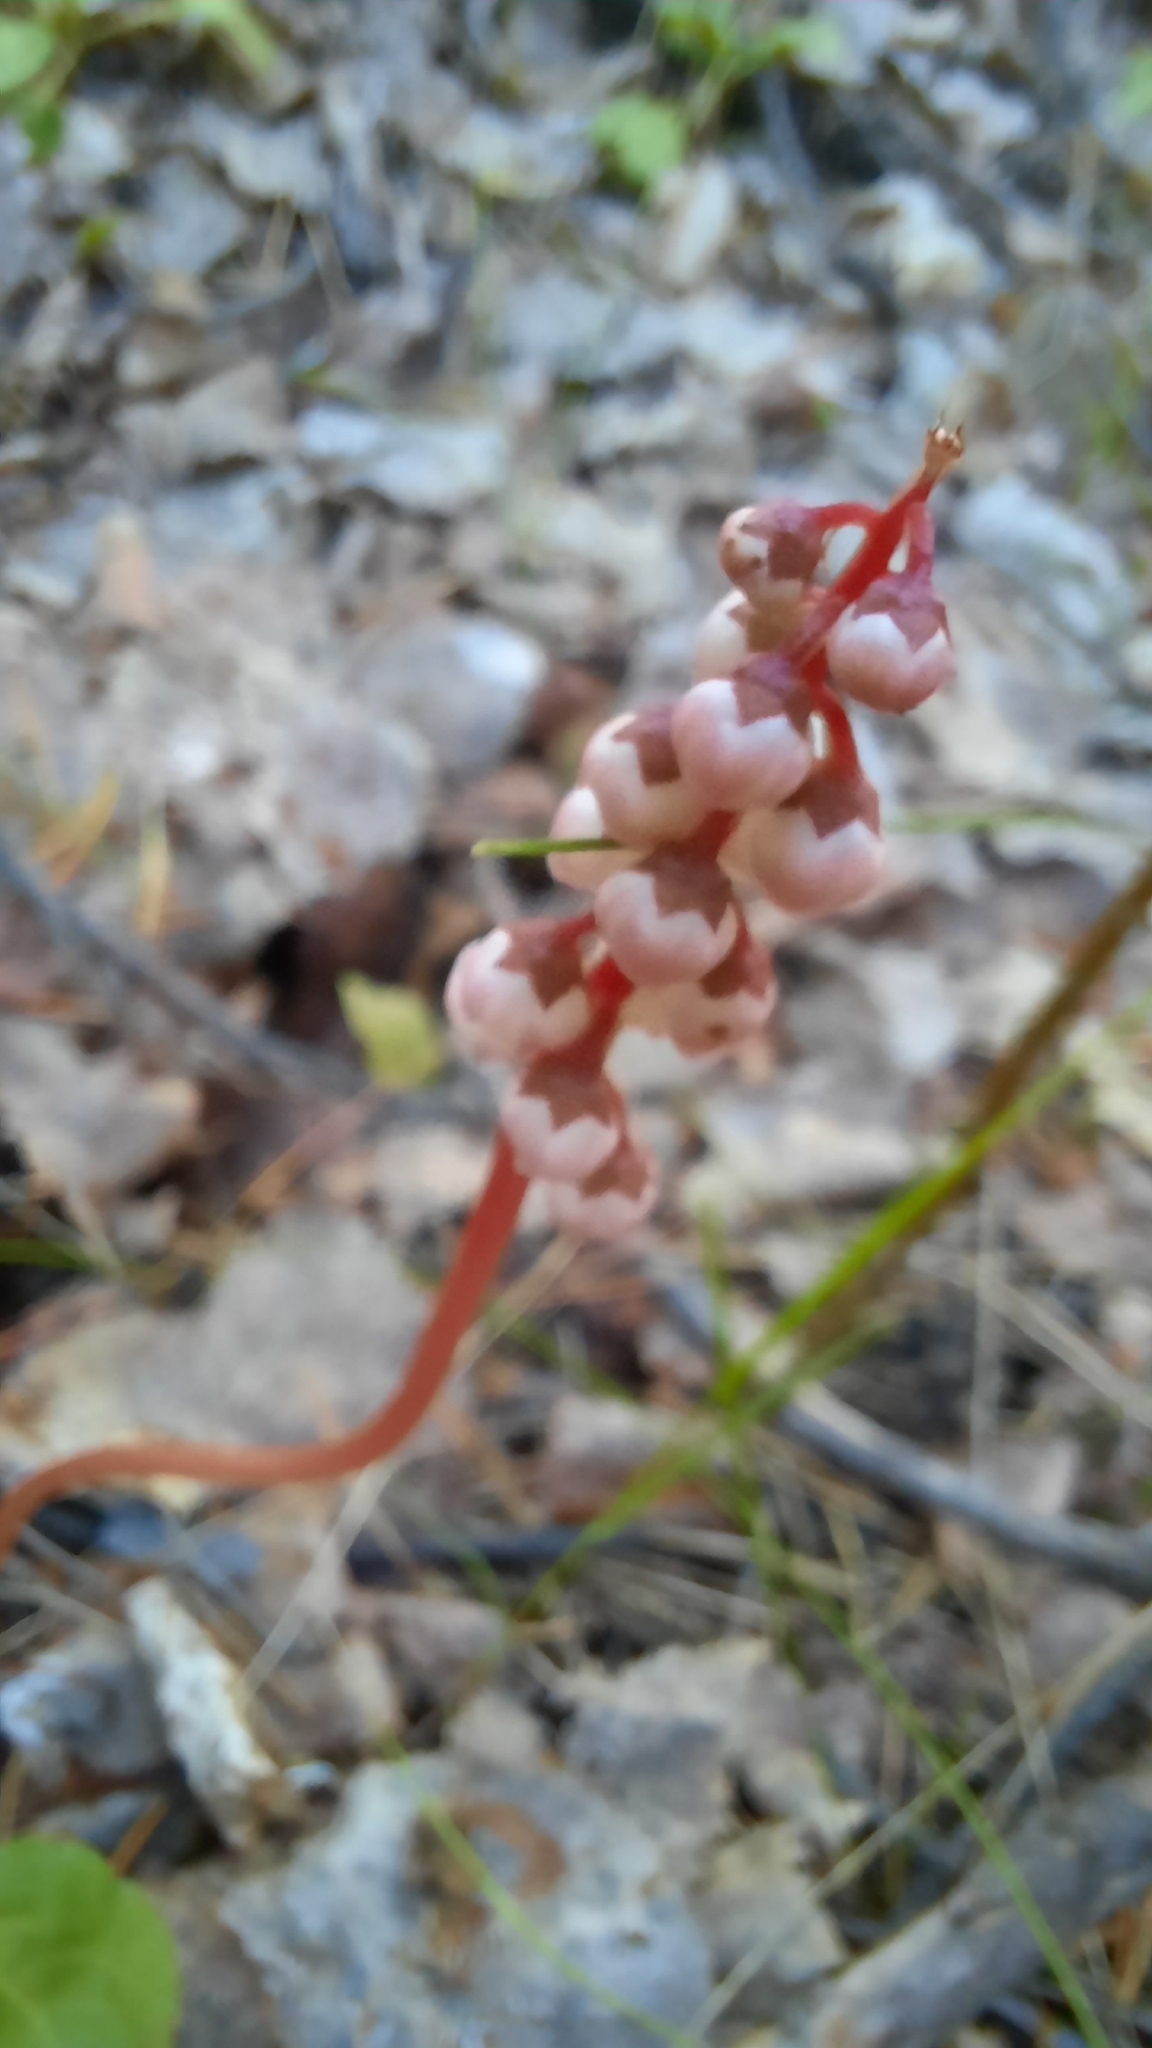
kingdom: Plantae
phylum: Tracheophyta
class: Magnoliopsida
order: Ericales
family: Ericaceae
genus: Pyrola
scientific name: Pyrola minor
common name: Common wintergreen
